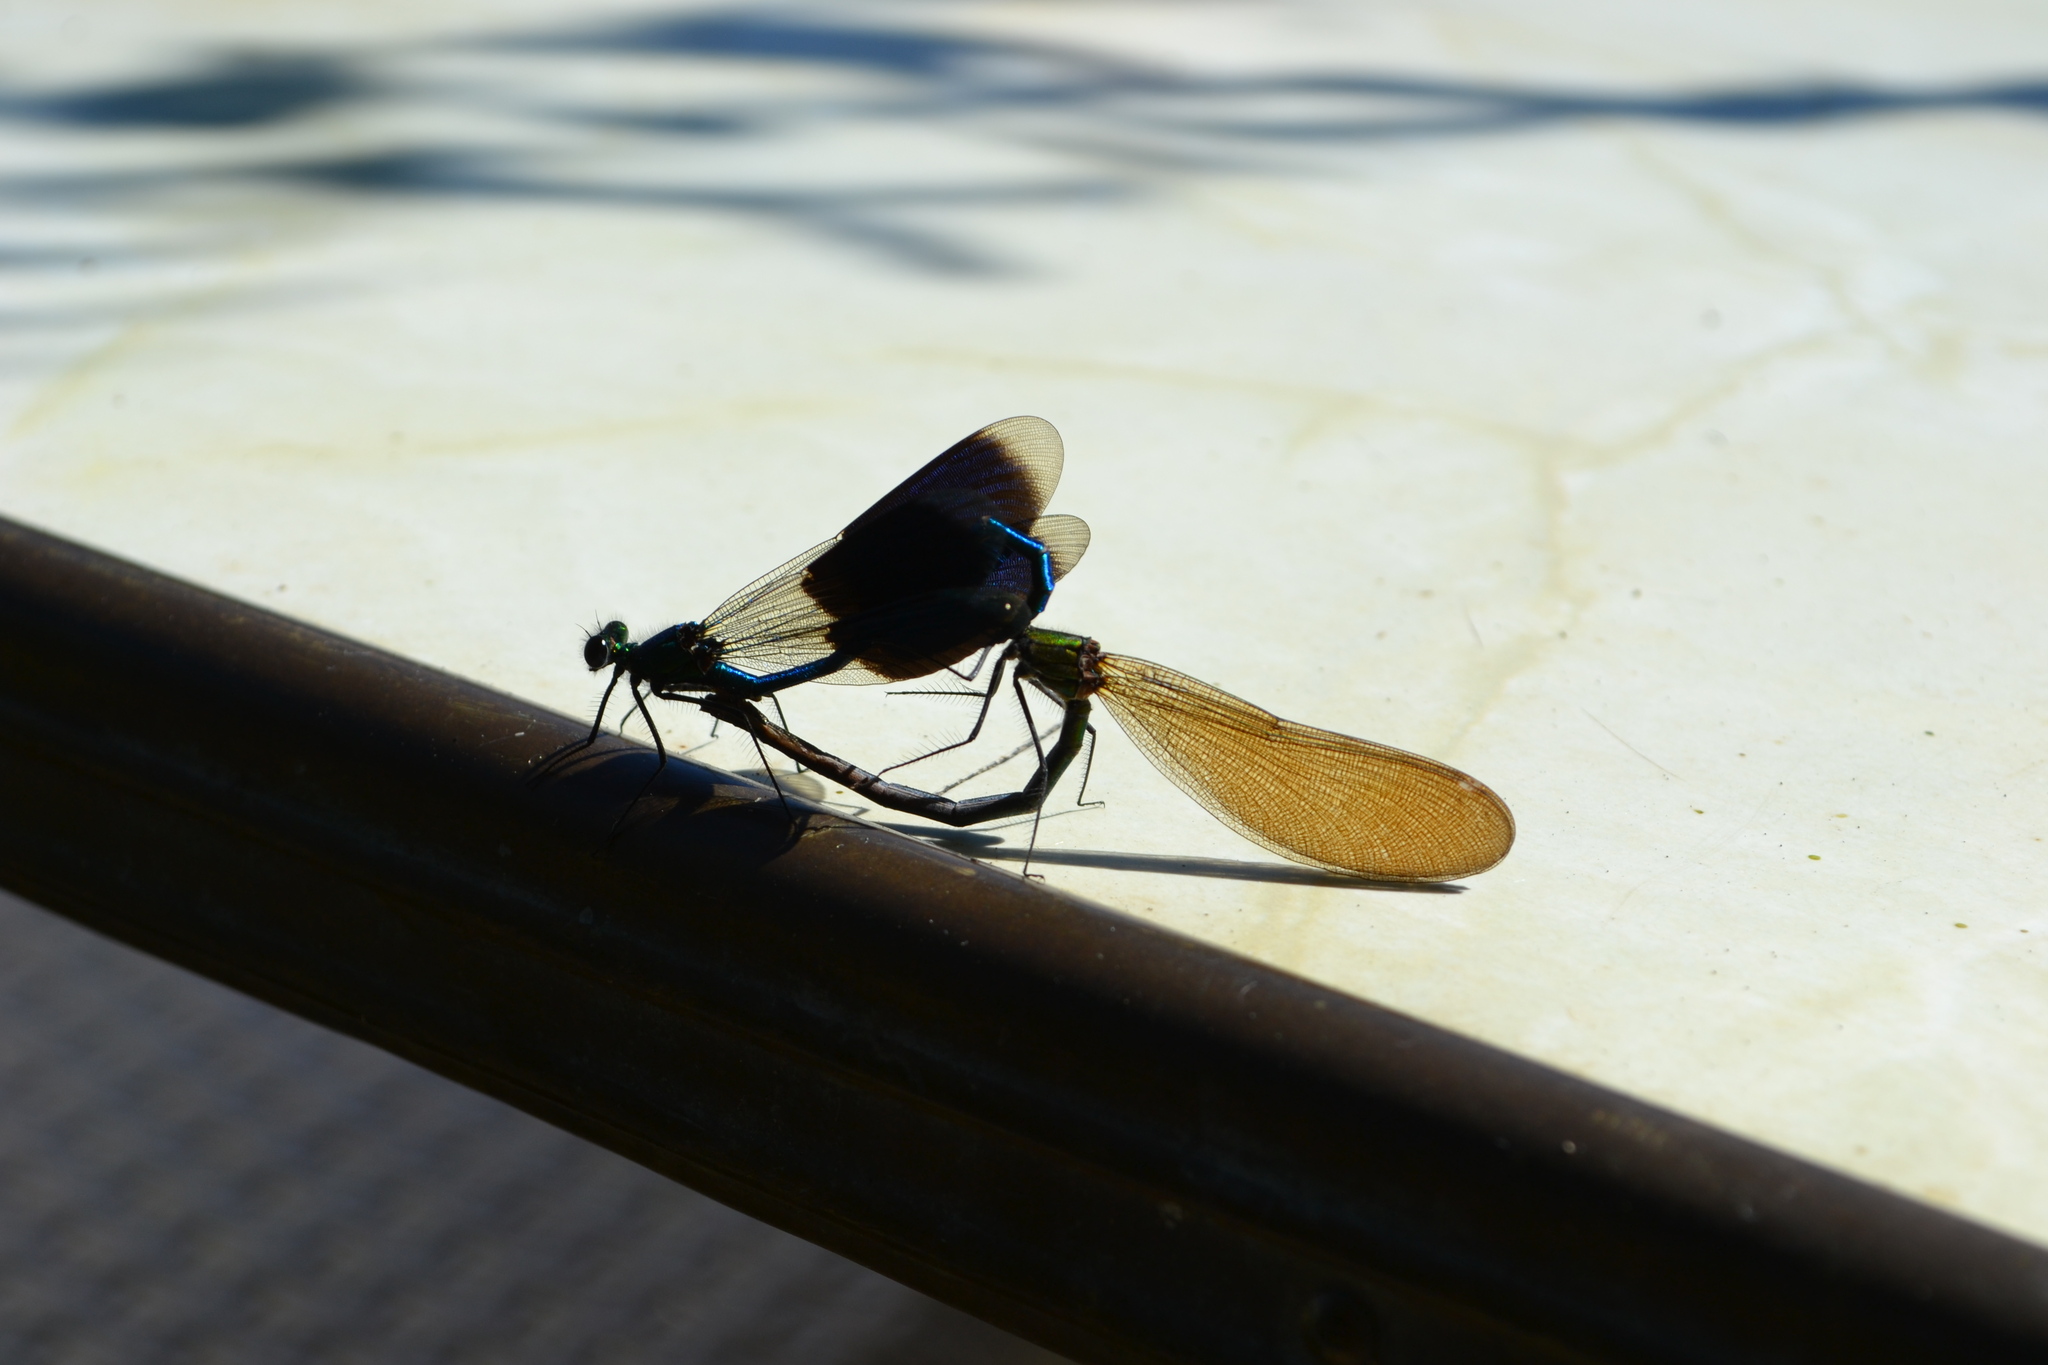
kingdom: Animalia
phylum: Arthropoda
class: Insecta
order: Odonata
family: Calopterygidae
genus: Calopteryx
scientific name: Calopteryx splendens
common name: Banded demoiselle
